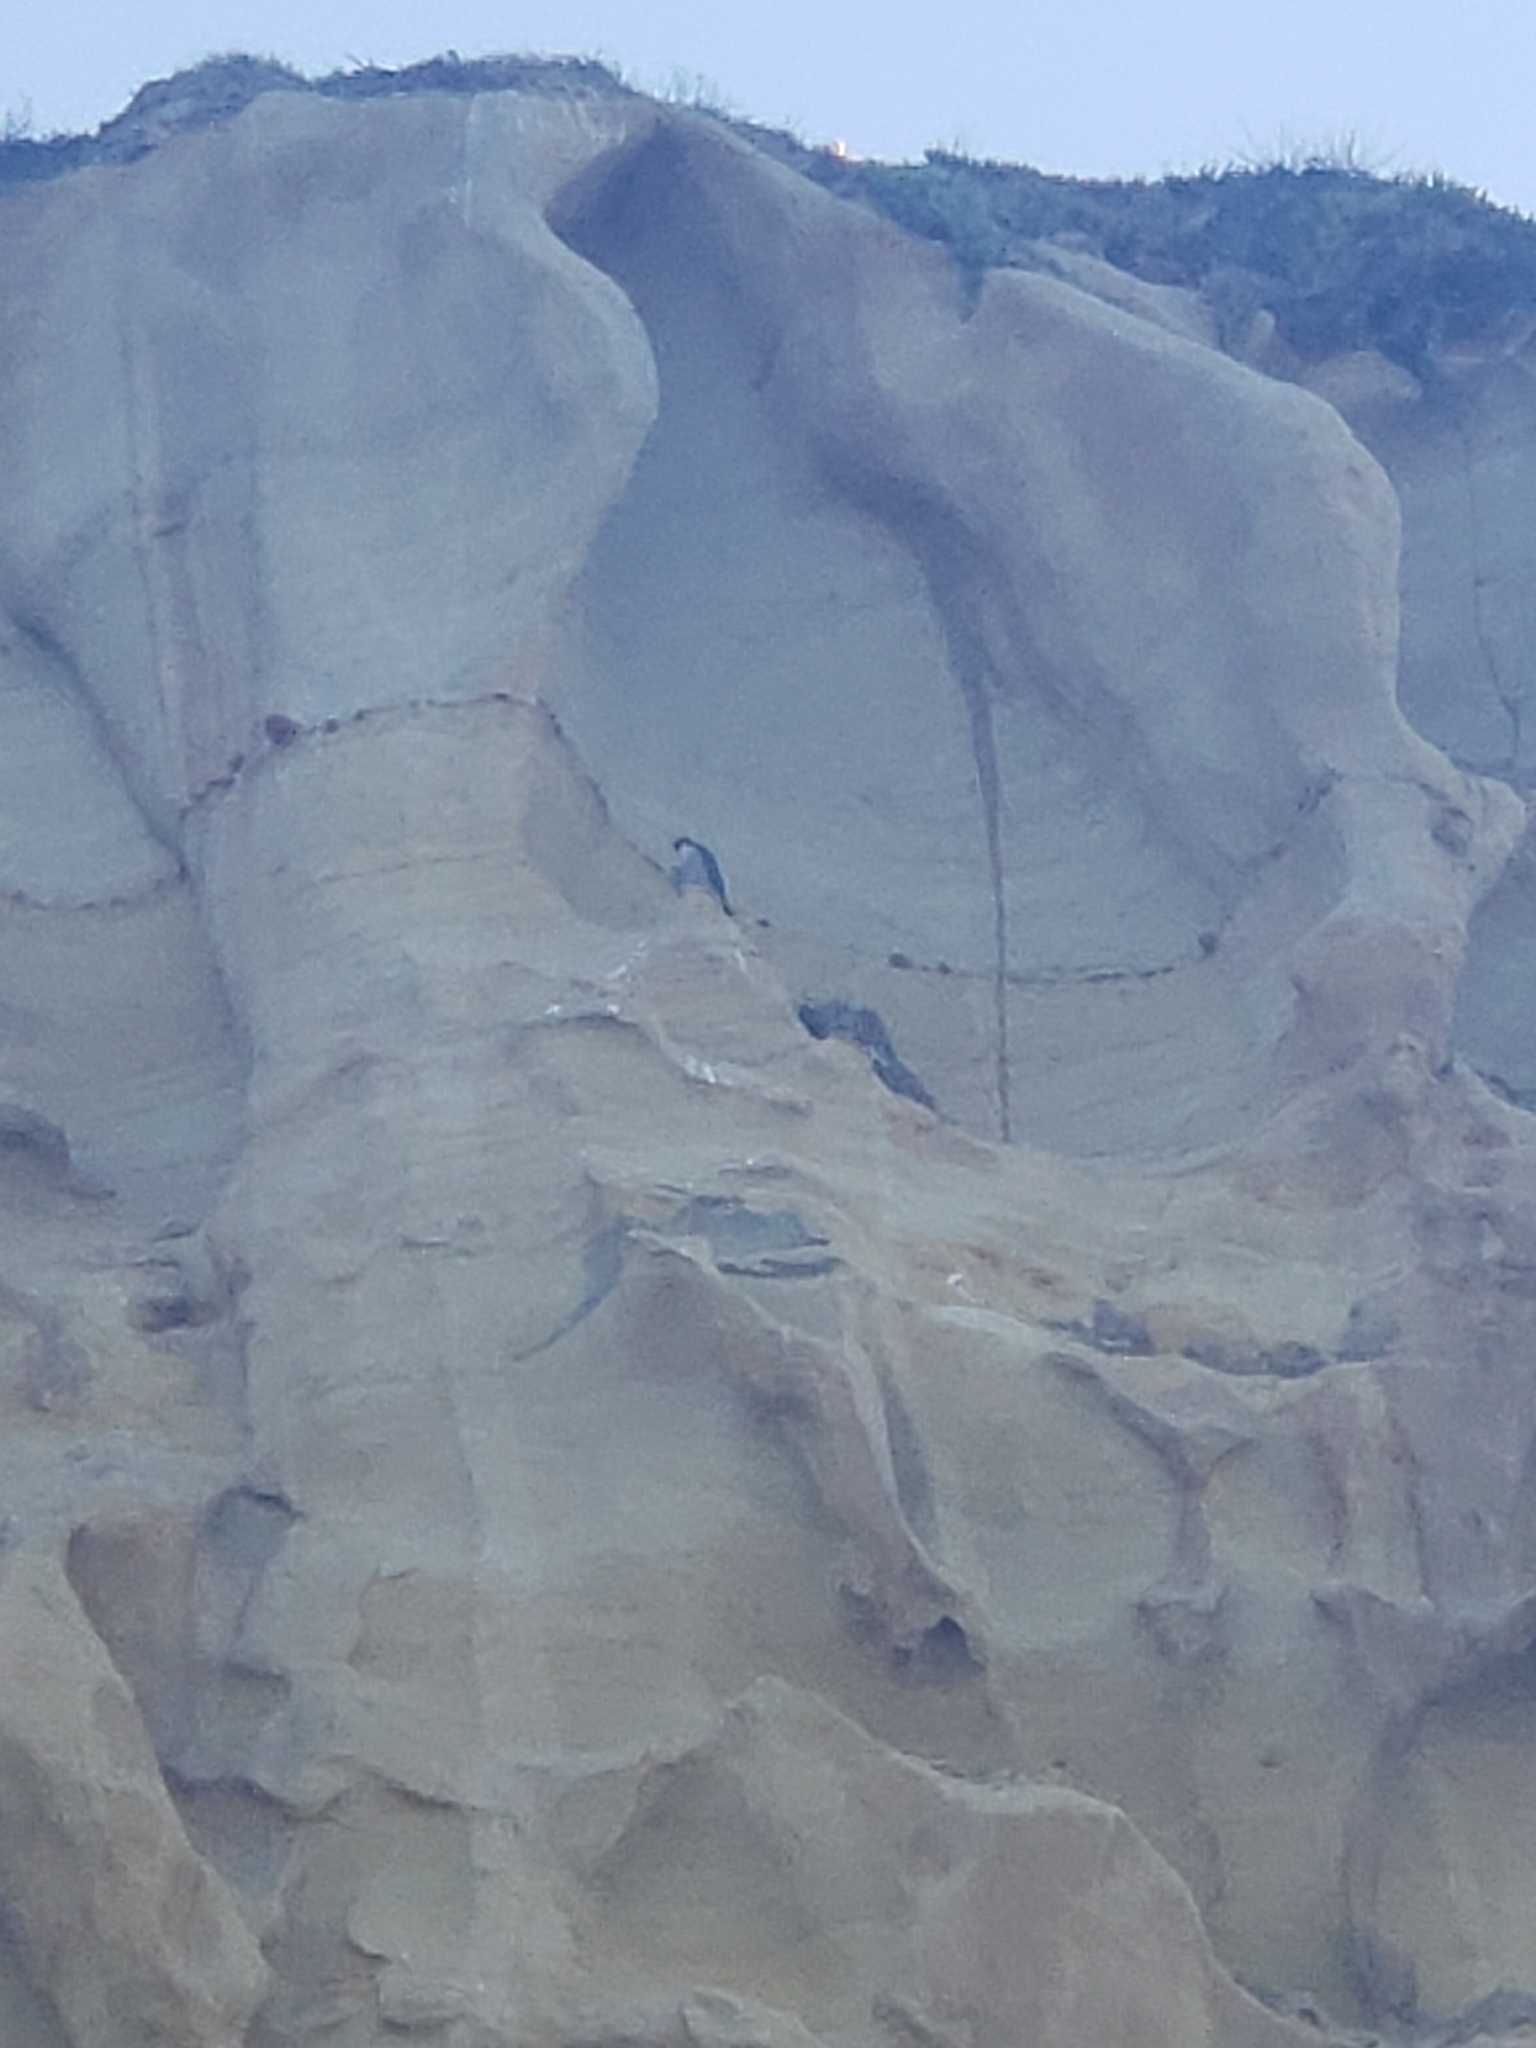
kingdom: Animalia
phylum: Chordata
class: Aves
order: Falconiformes
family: Falconidae
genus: Falco
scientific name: Falco peregrinus
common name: Peregrine falcon
